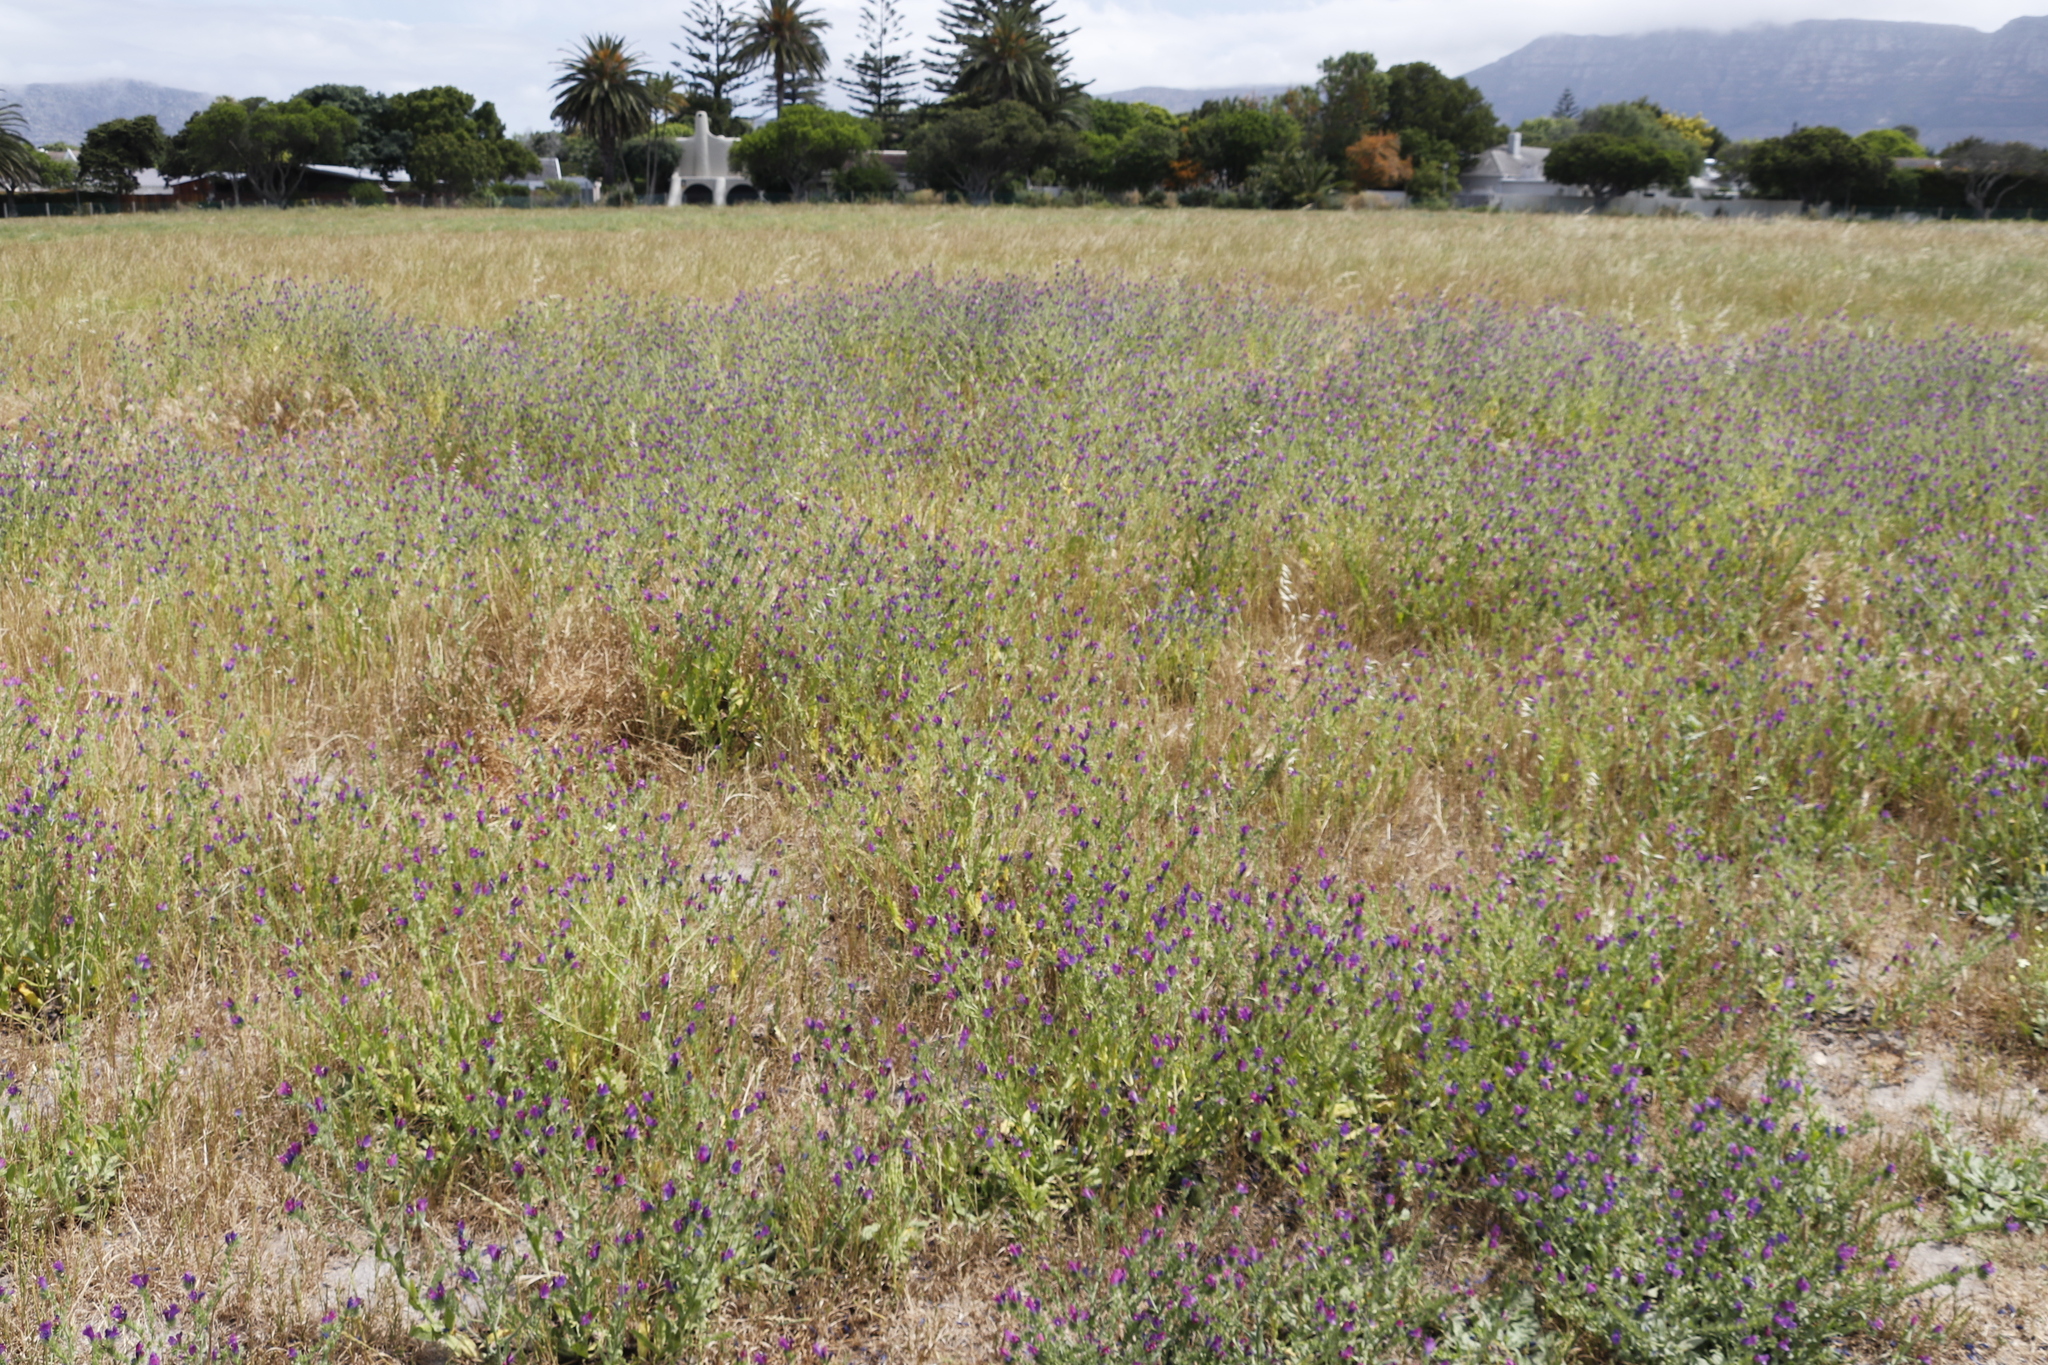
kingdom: Plantae
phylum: Tracheophyta
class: Magnoliopsida
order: Boraginales
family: Boraginaceae
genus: Echium
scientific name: Echium plantagineum
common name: Purple viper's-bugloss
